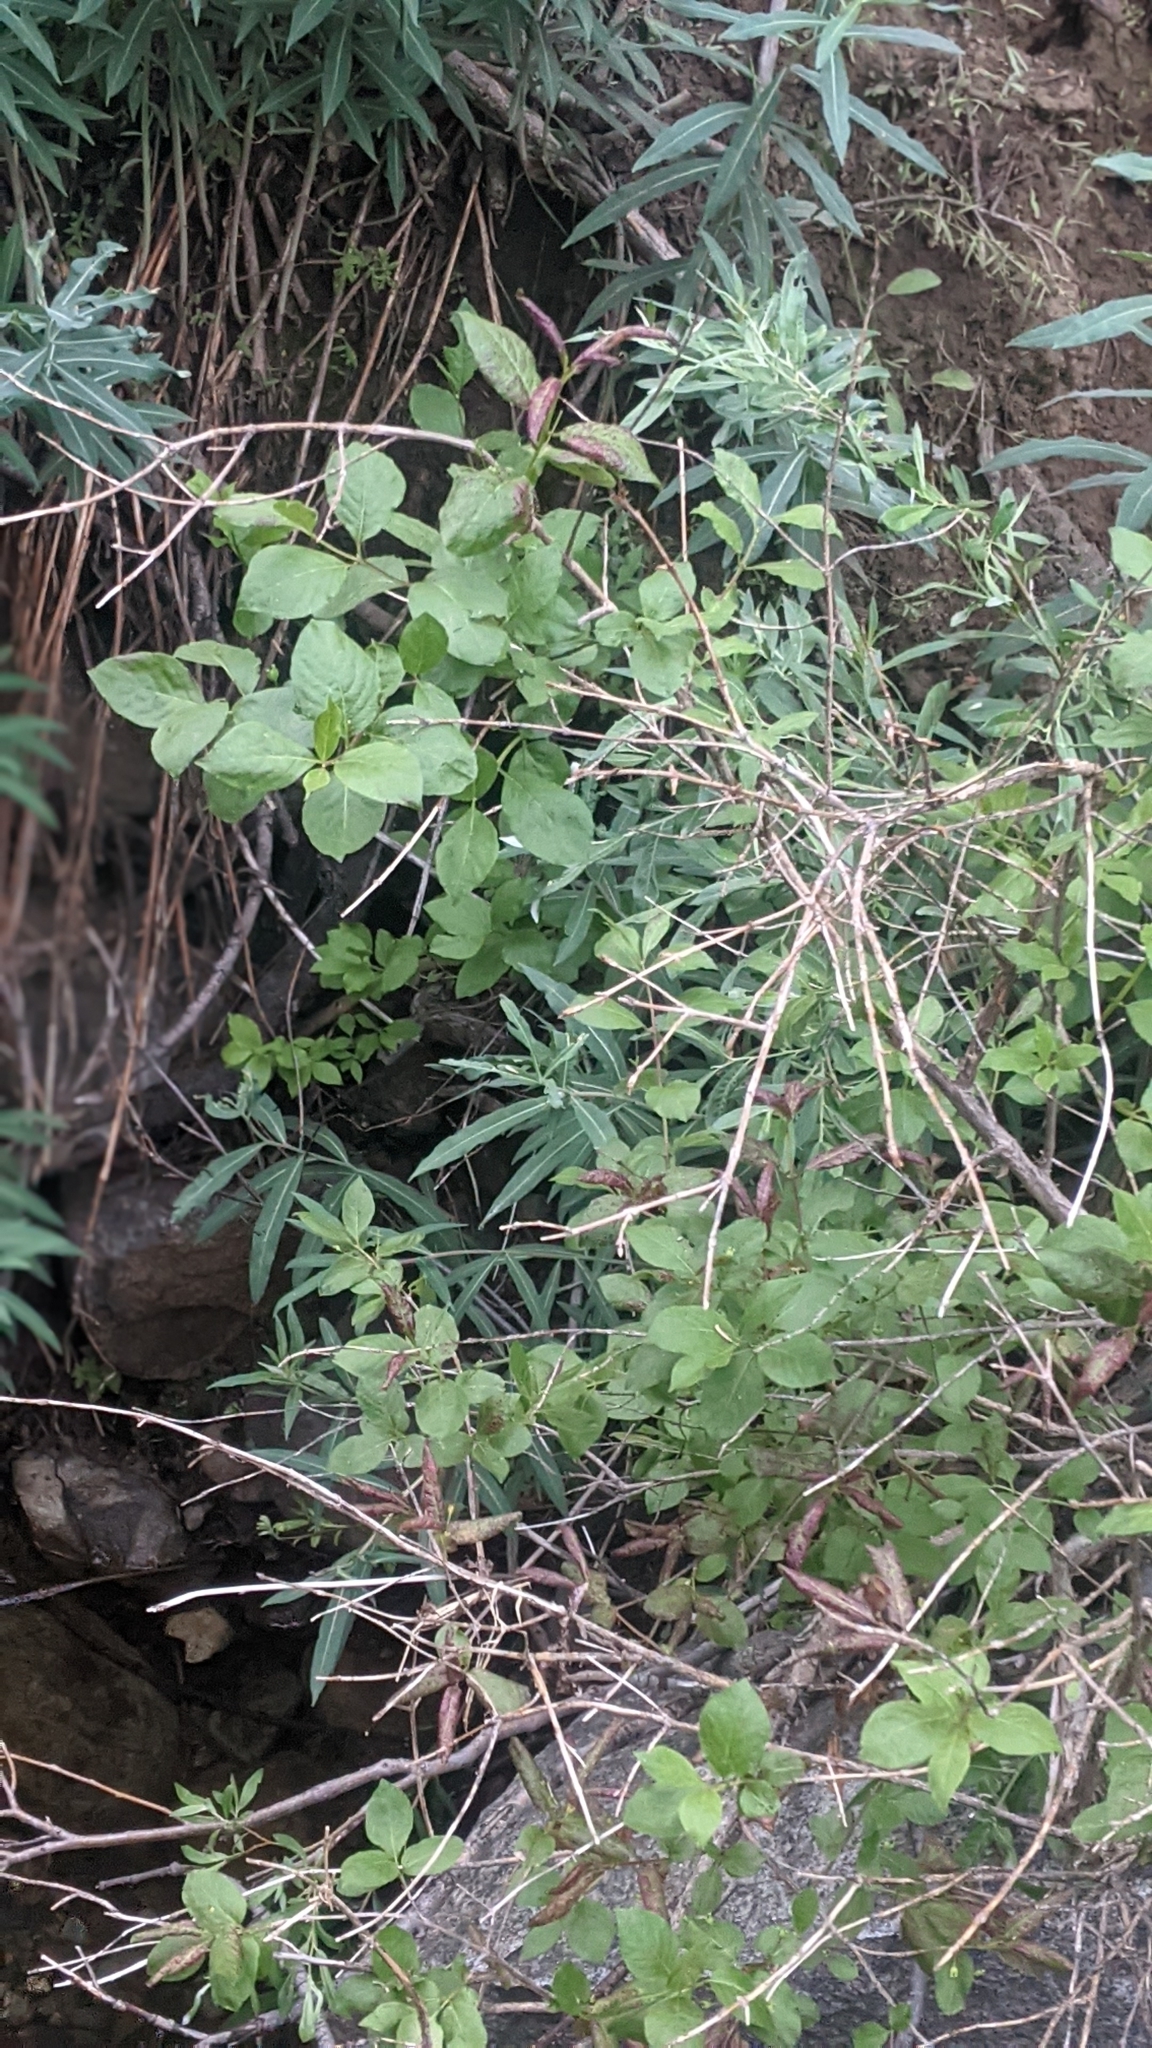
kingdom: Plantae
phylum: Tracheophyta
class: Magnoliopsida
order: Dipsacales
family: Caprifoliaceae
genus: Lonicera
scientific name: Lonicera conjugialis
